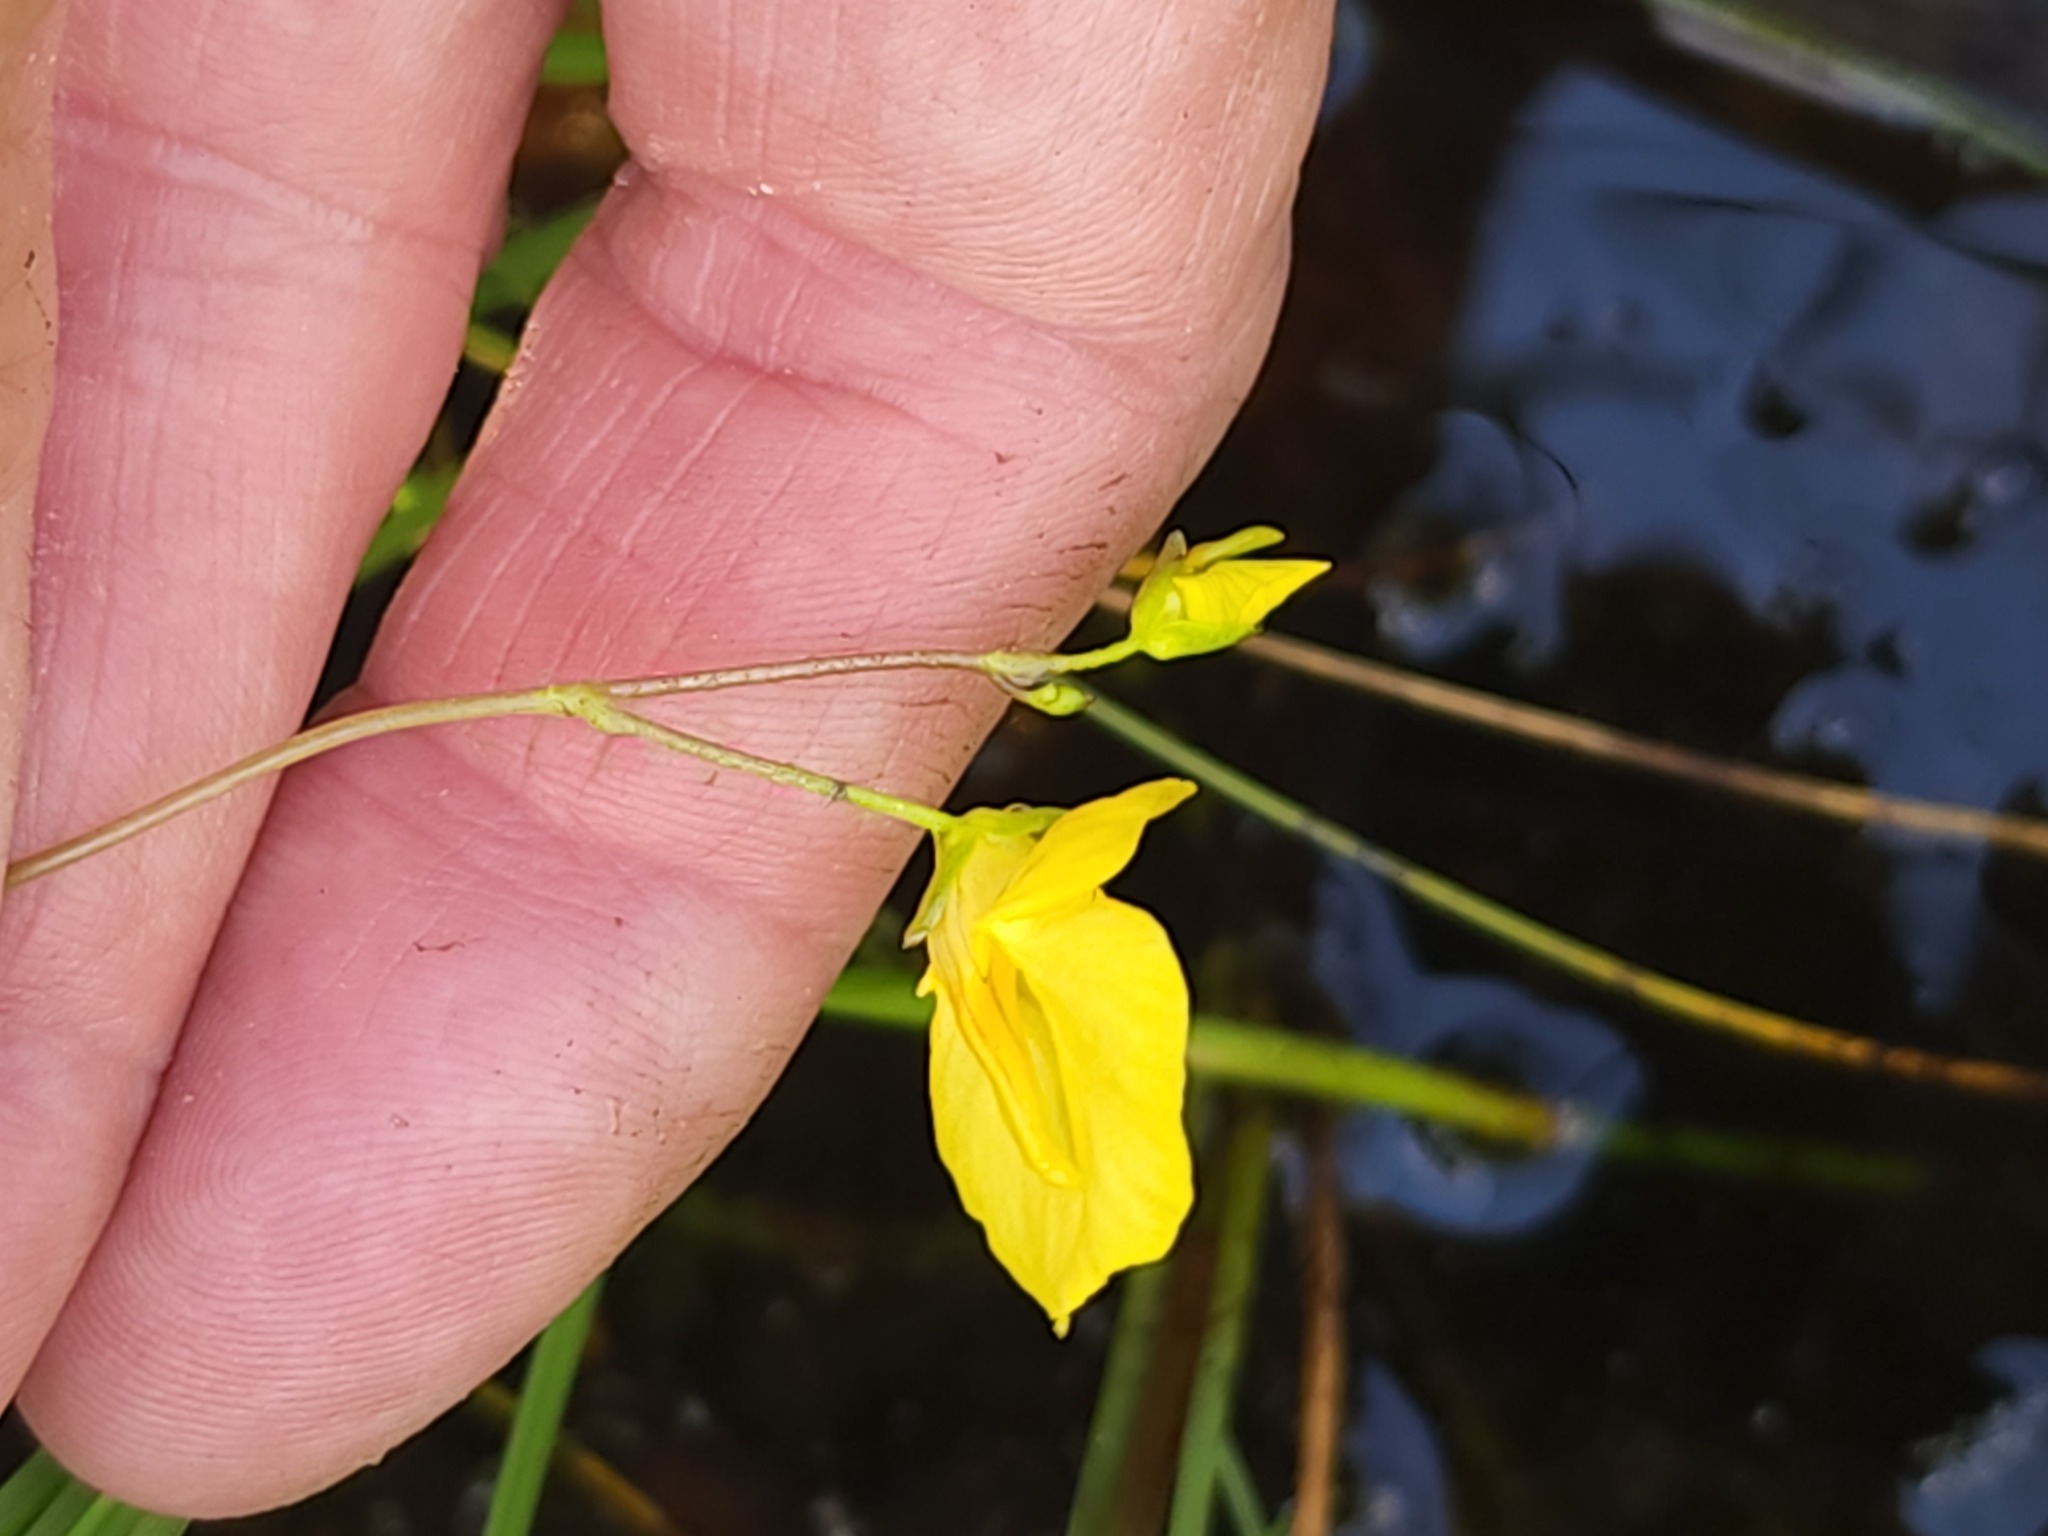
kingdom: Plantae
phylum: Tracheophyta
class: Magnoliopsida
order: Lamiales
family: Lentibulariaceae
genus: Utricularia
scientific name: Utricularia intermedia
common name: Intermediate bladderwort
